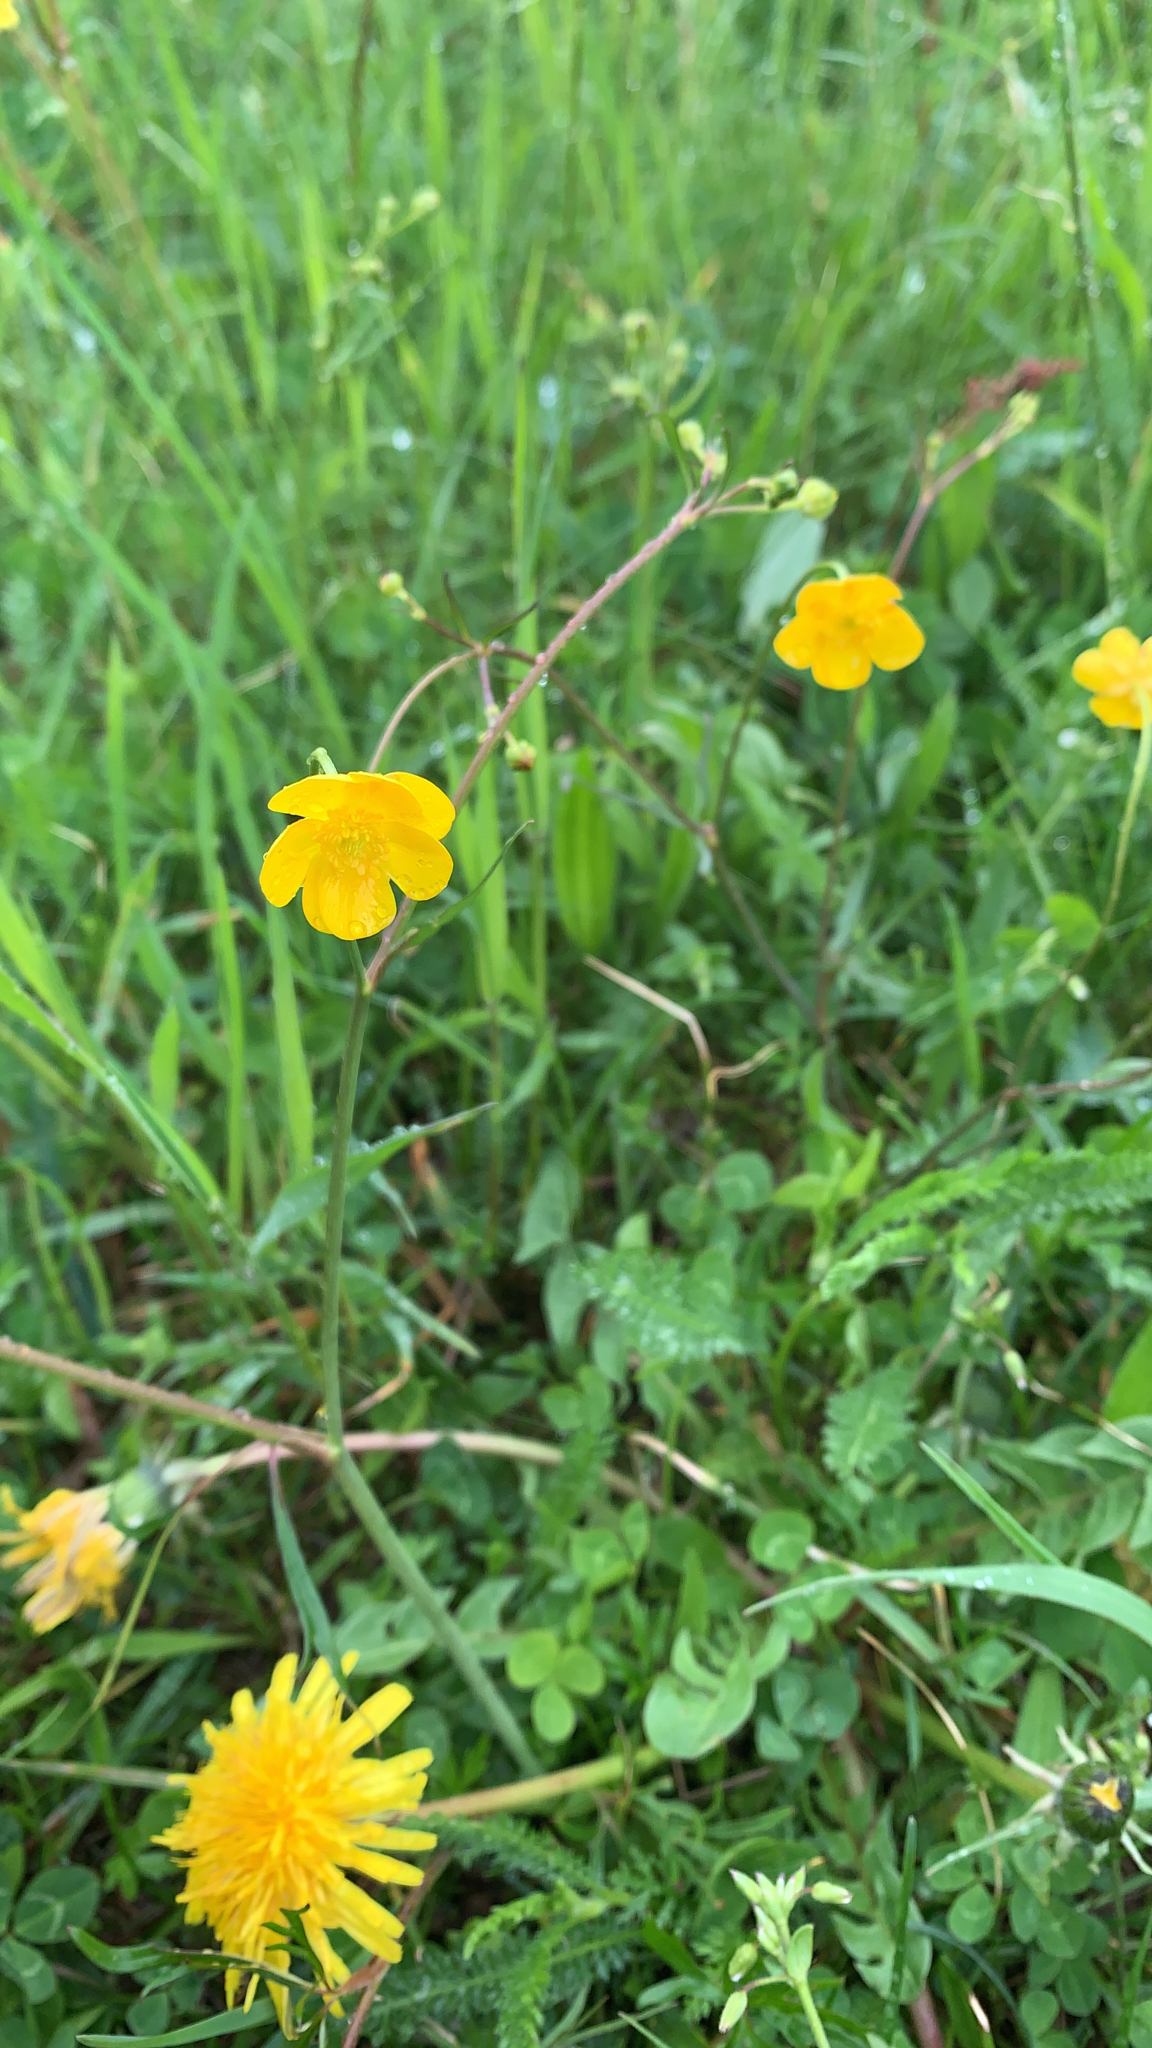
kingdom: Plantae
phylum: Tracheophyta
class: Magnoliopsida
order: Ranunculales
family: Ranunculaceae
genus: Ranunculus
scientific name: Ranunculus acris
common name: Meadow buttercup
